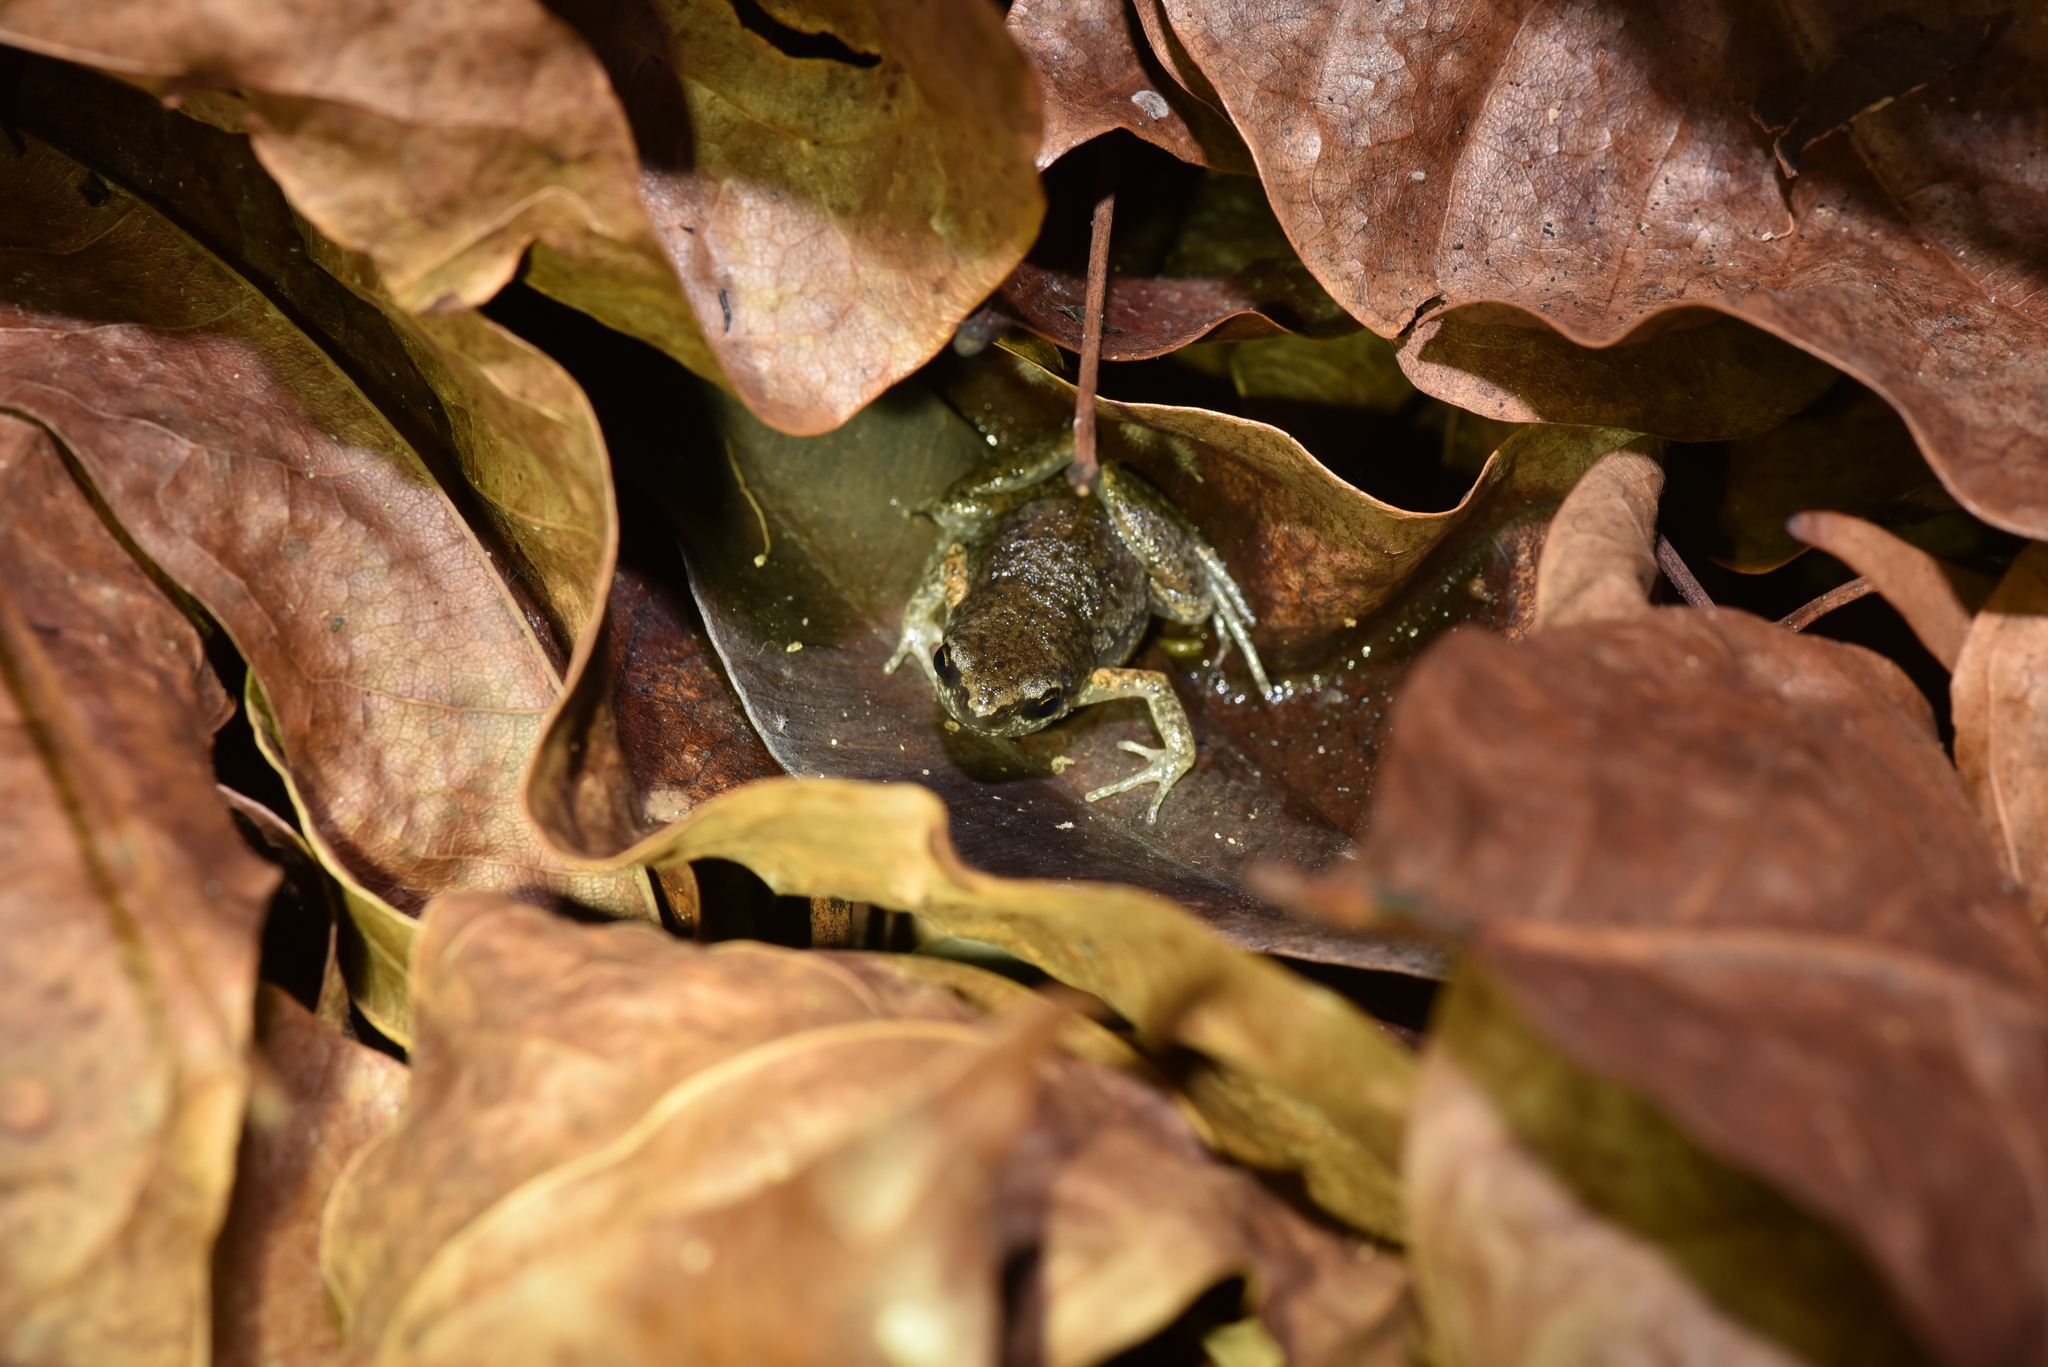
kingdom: Animalia
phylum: Chordata
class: Amphibia
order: Anura
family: Microhylidae
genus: Micryletta
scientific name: Micryletta steinegeri
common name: Stejneger's paddy frog
